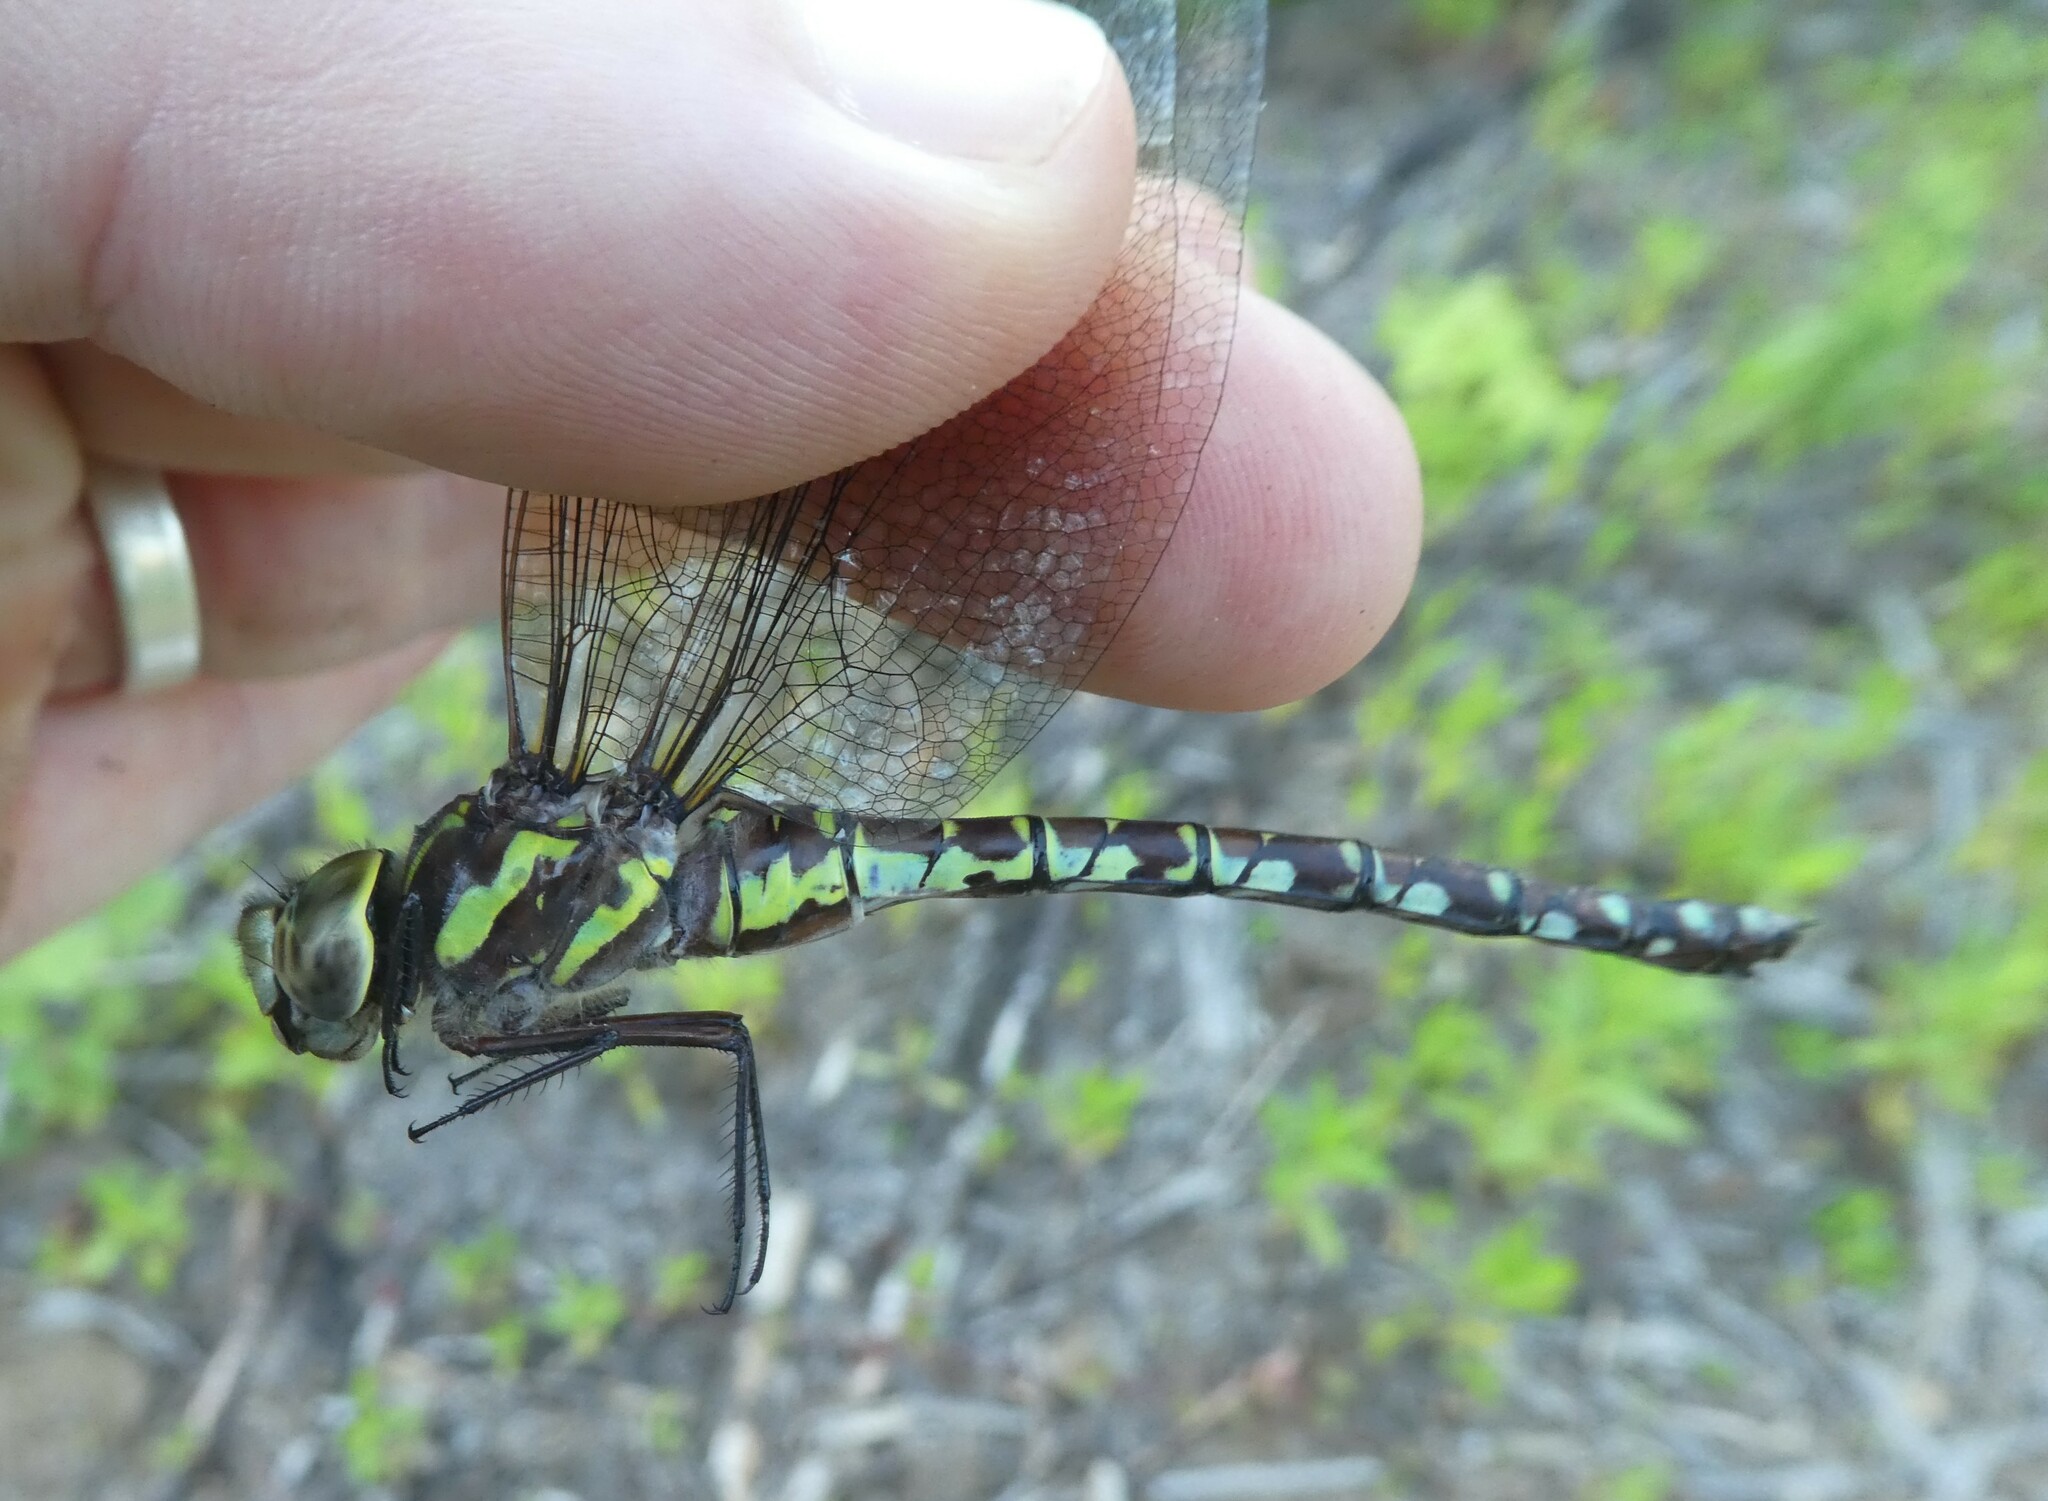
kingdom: Animalia
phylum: Arthropoda
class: Insecta
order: Odonata
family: Aeshnidae
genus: Aeshna
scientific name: Aeshna verticalis
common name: Green-striped darner
